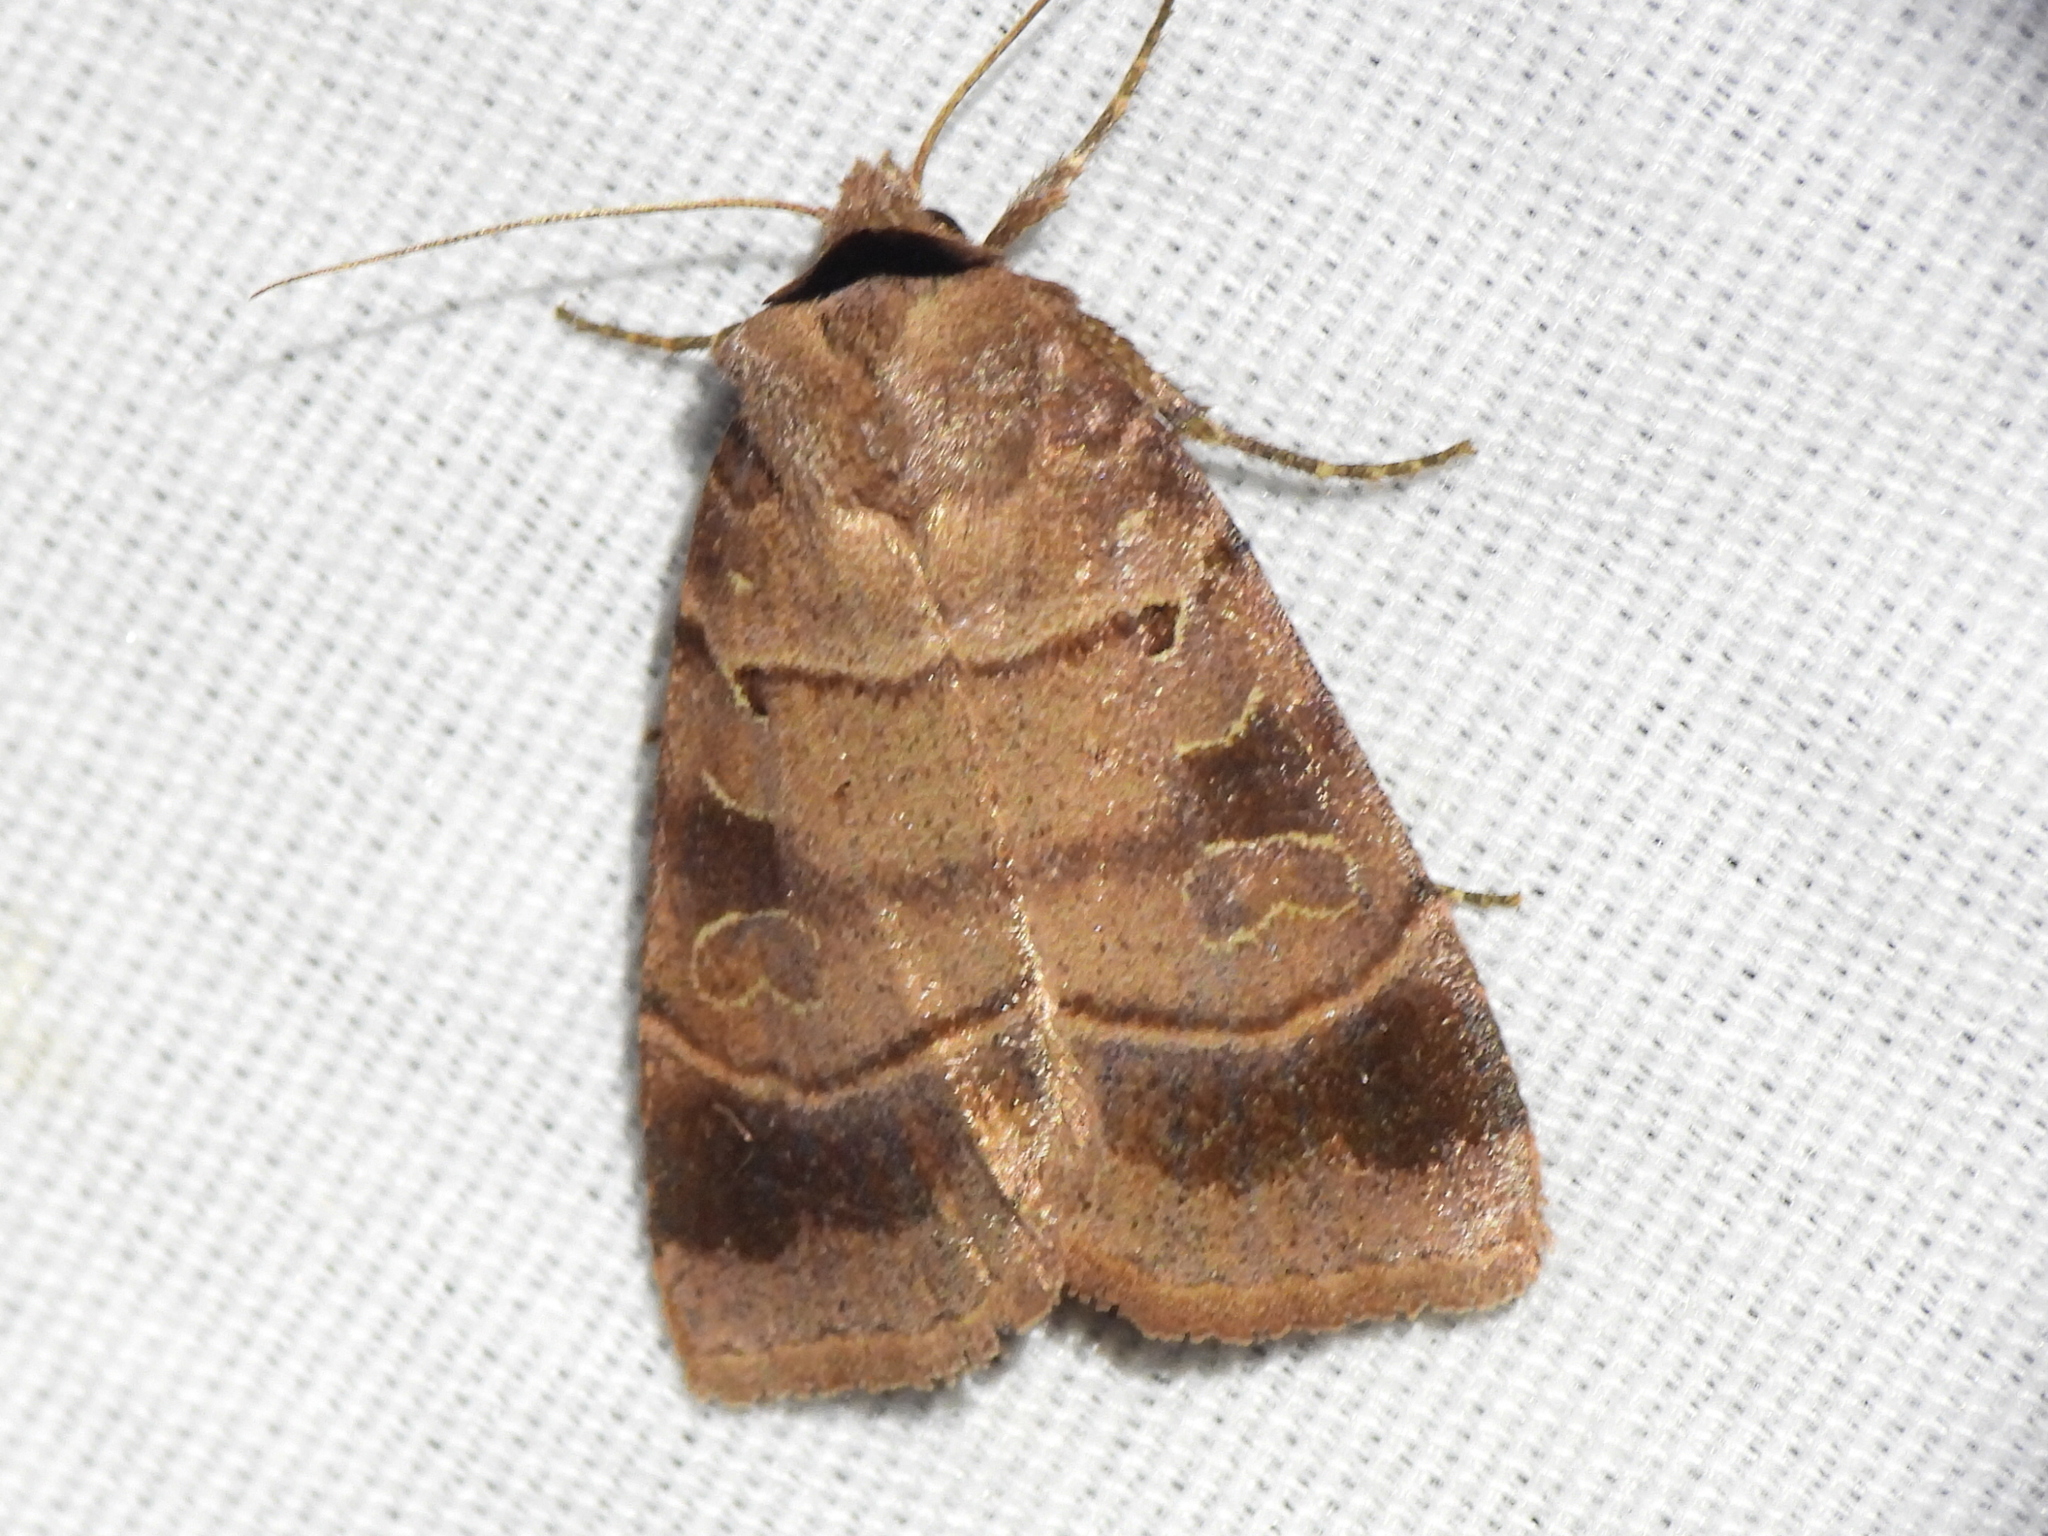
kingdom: Animalia
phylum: Arthropoda
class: Insecta
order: Lepidoptera
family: Noctuidae
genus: Agnorisma
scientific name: Agnorisma badinodis
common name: Pale-banded dart
